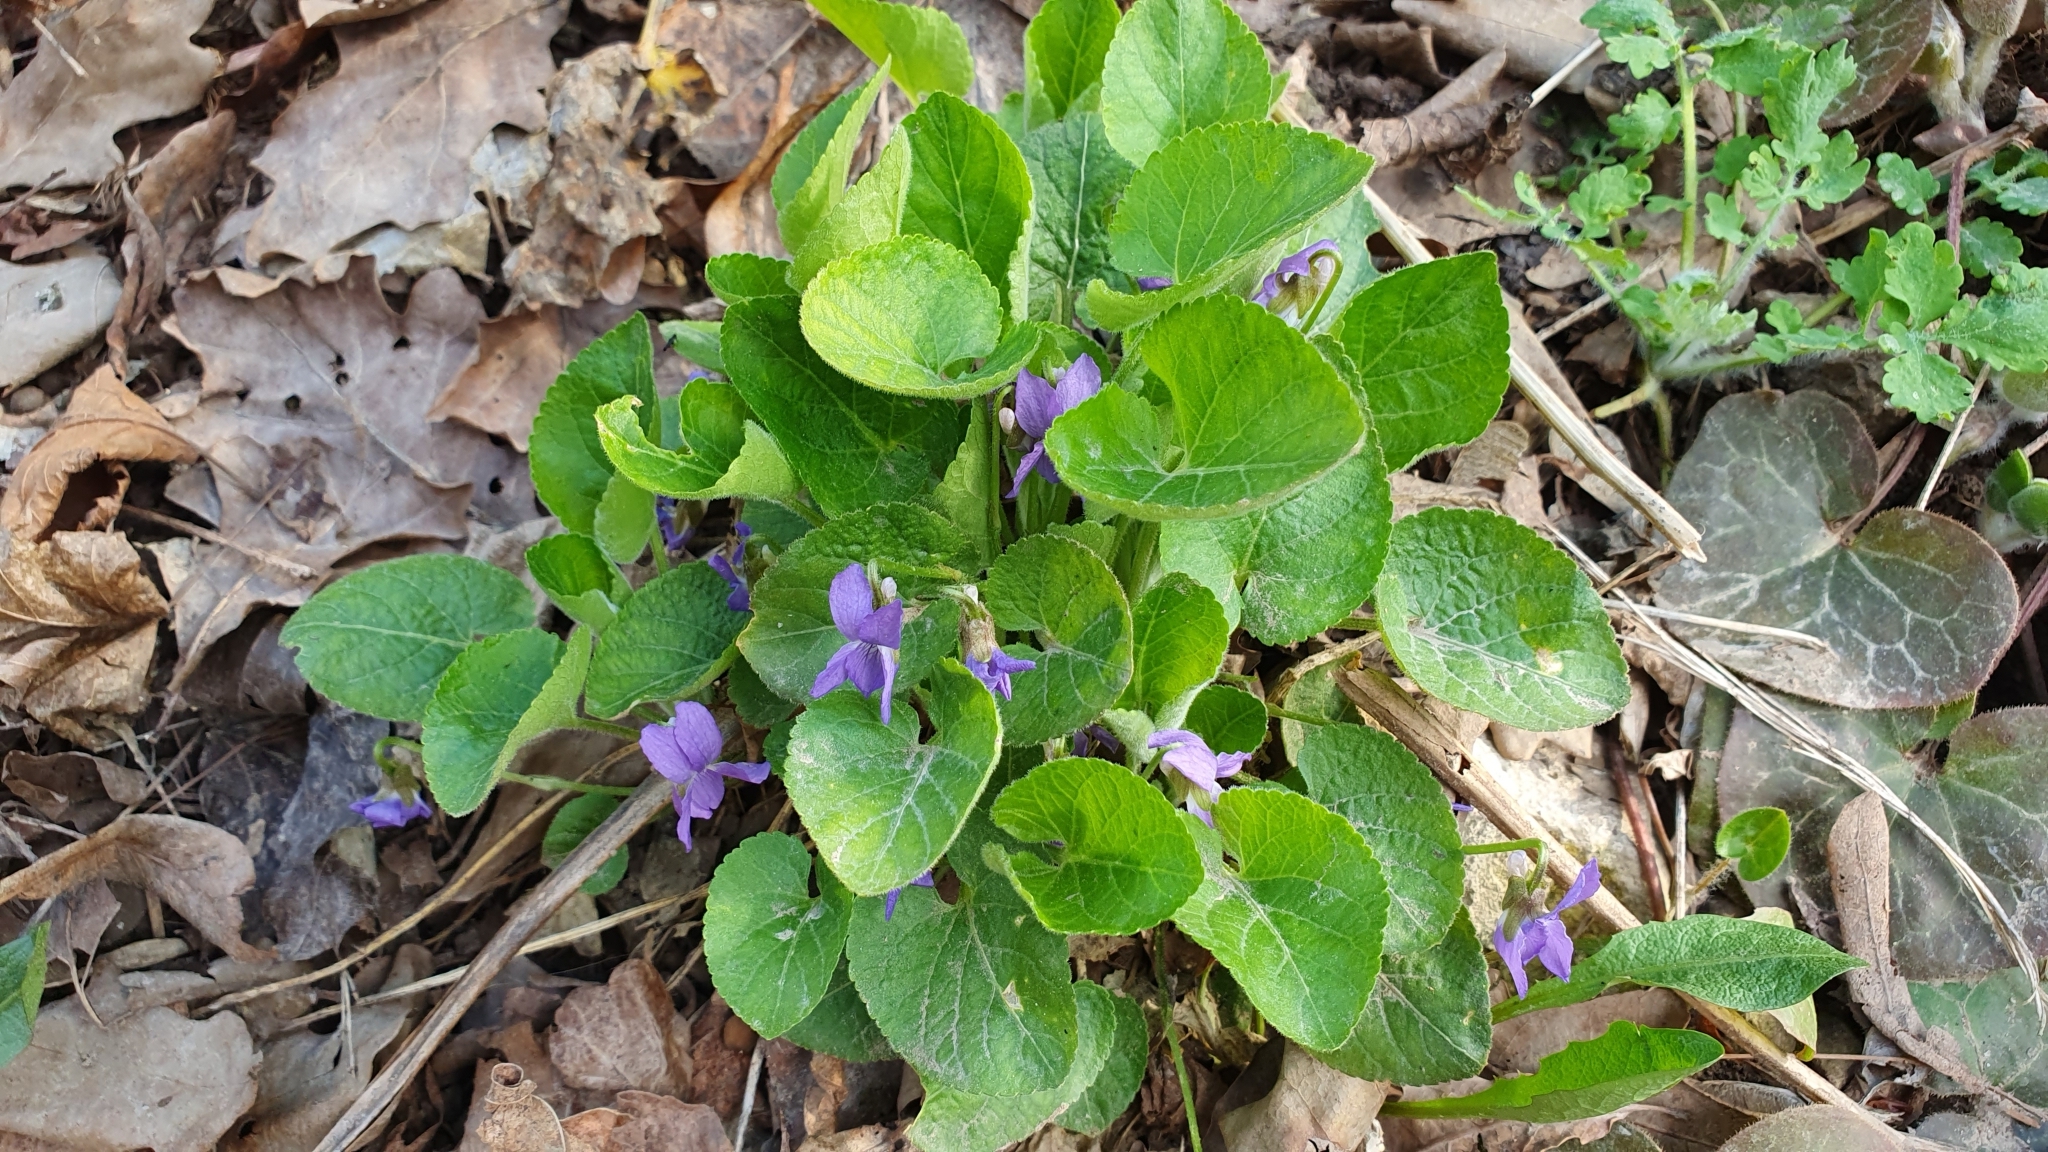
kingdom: Plantae
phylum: Tracheophyta
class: Magnoliopsida
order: Malpighiales
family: Violaceae
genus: Viola
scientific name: Viola collina
